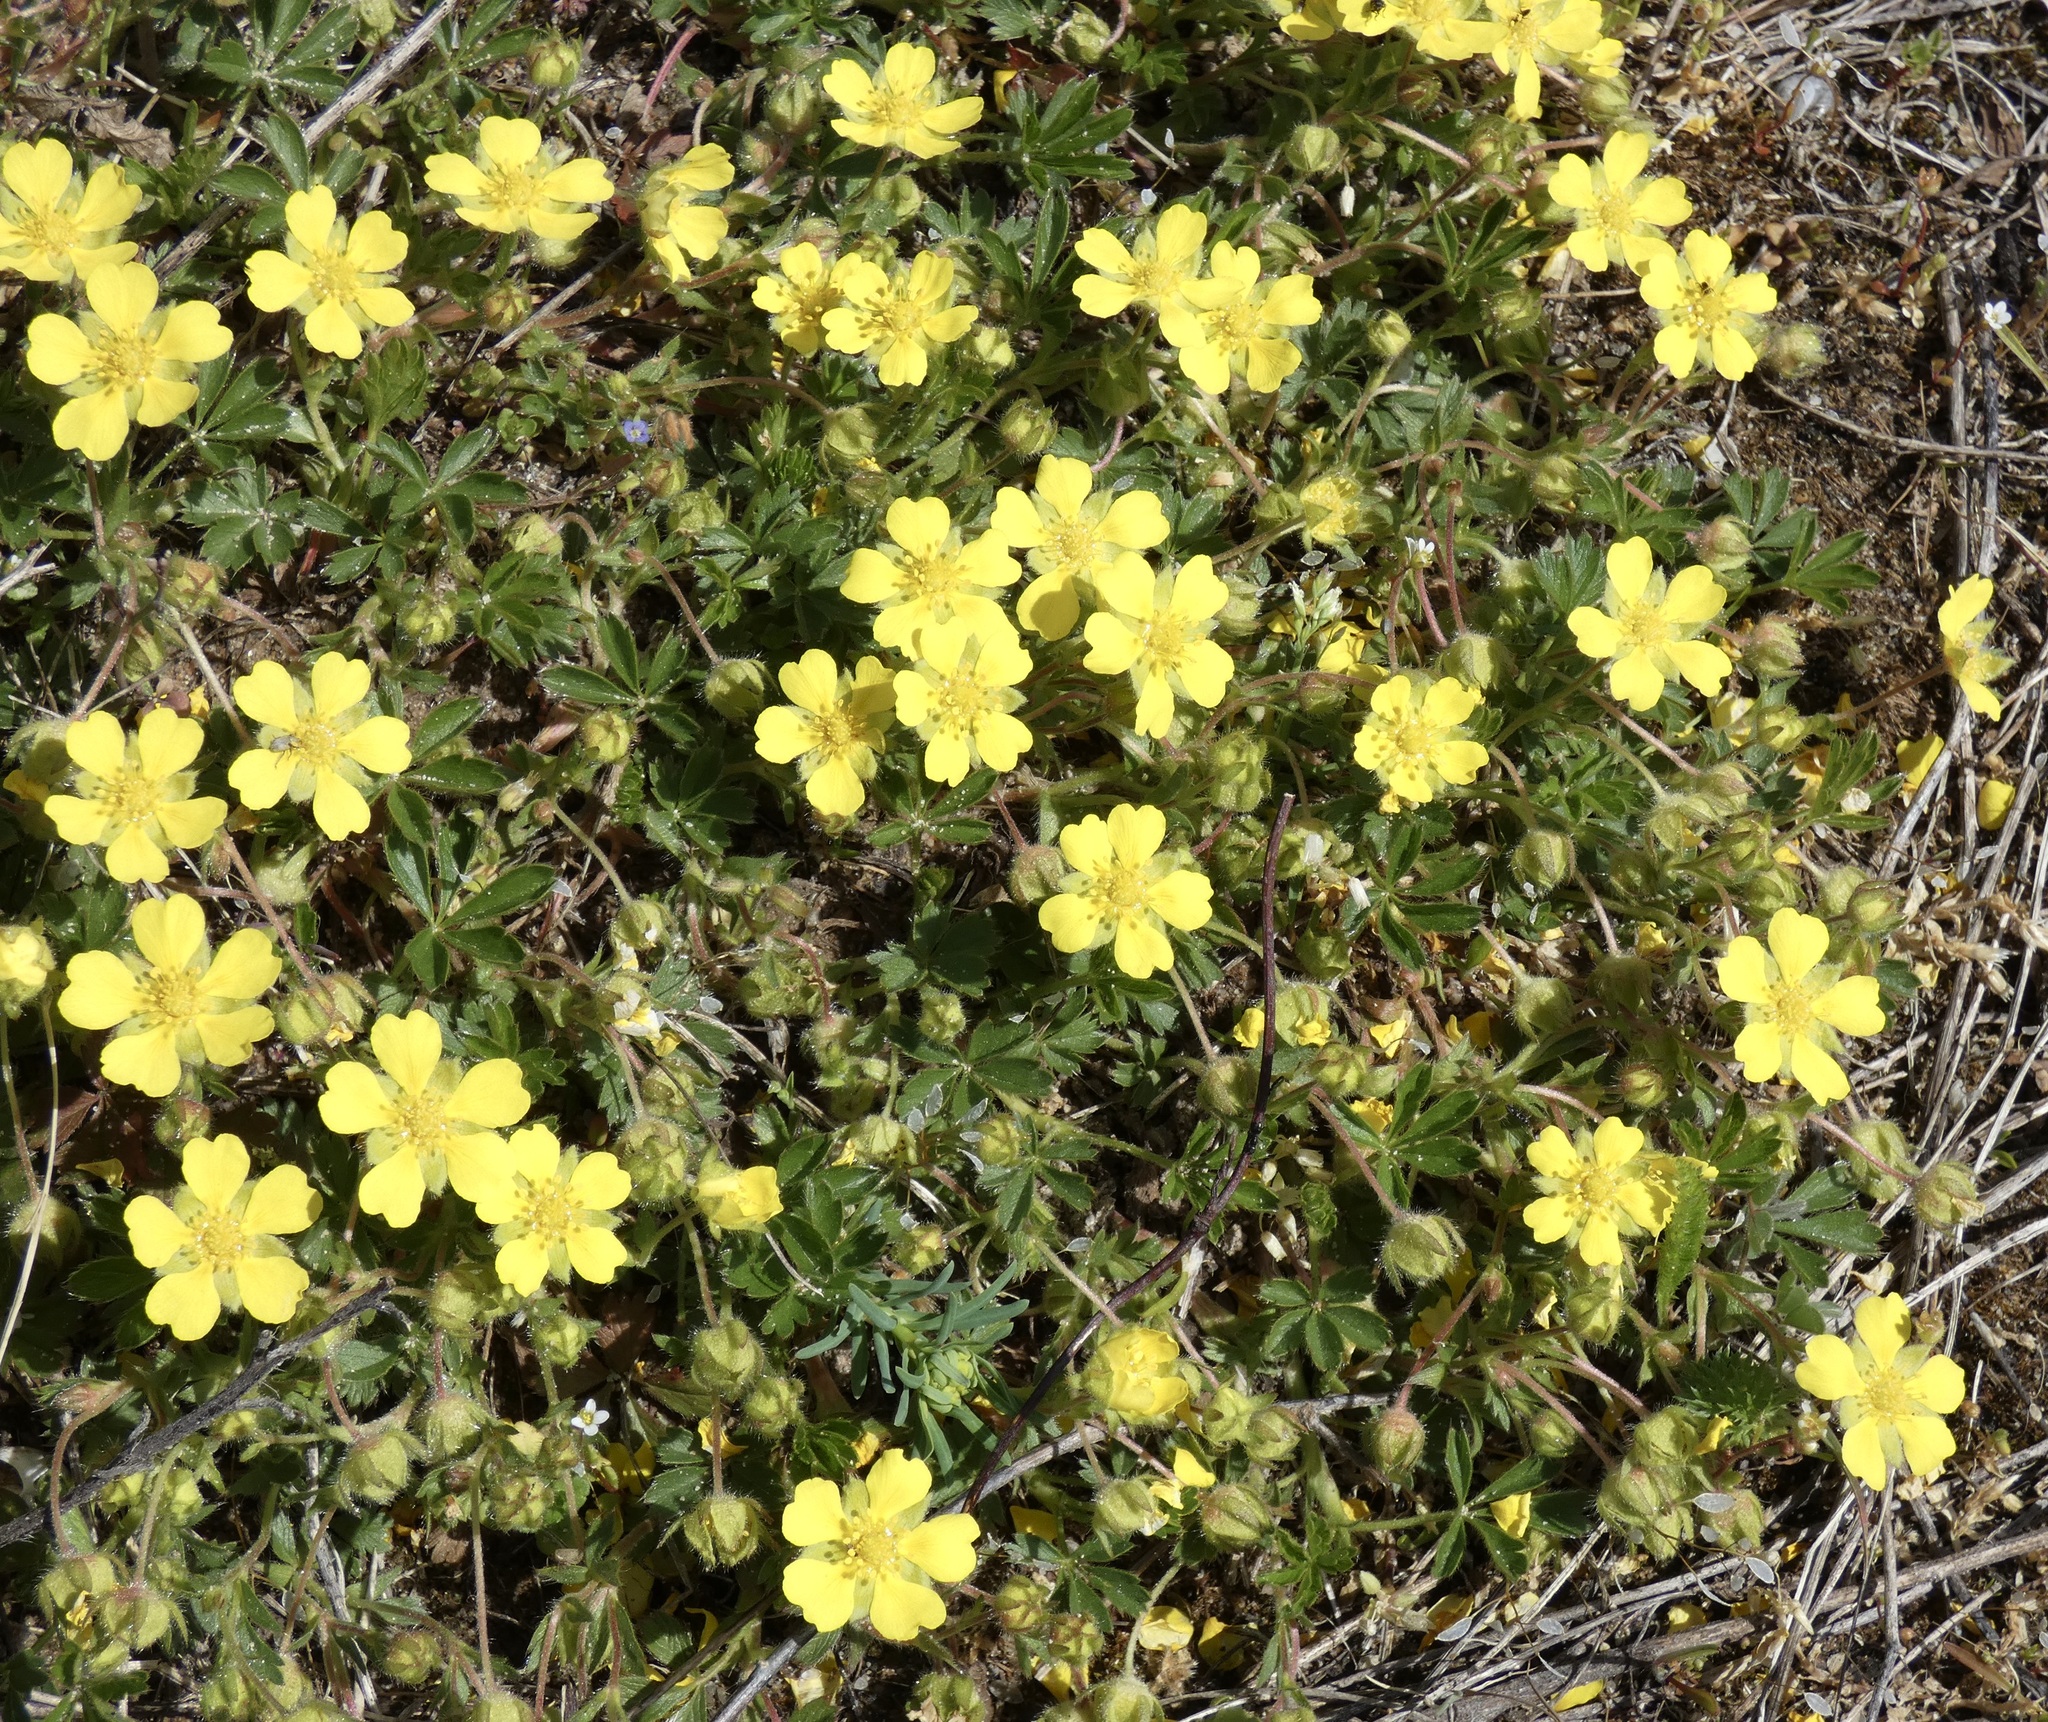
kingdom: Plantae
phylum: Tracheophyta
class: Magnoliopsida
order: Rosales
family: Rosaceae
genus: Potentilla
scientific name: Potentilla verna
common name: Spring cinquefoil
